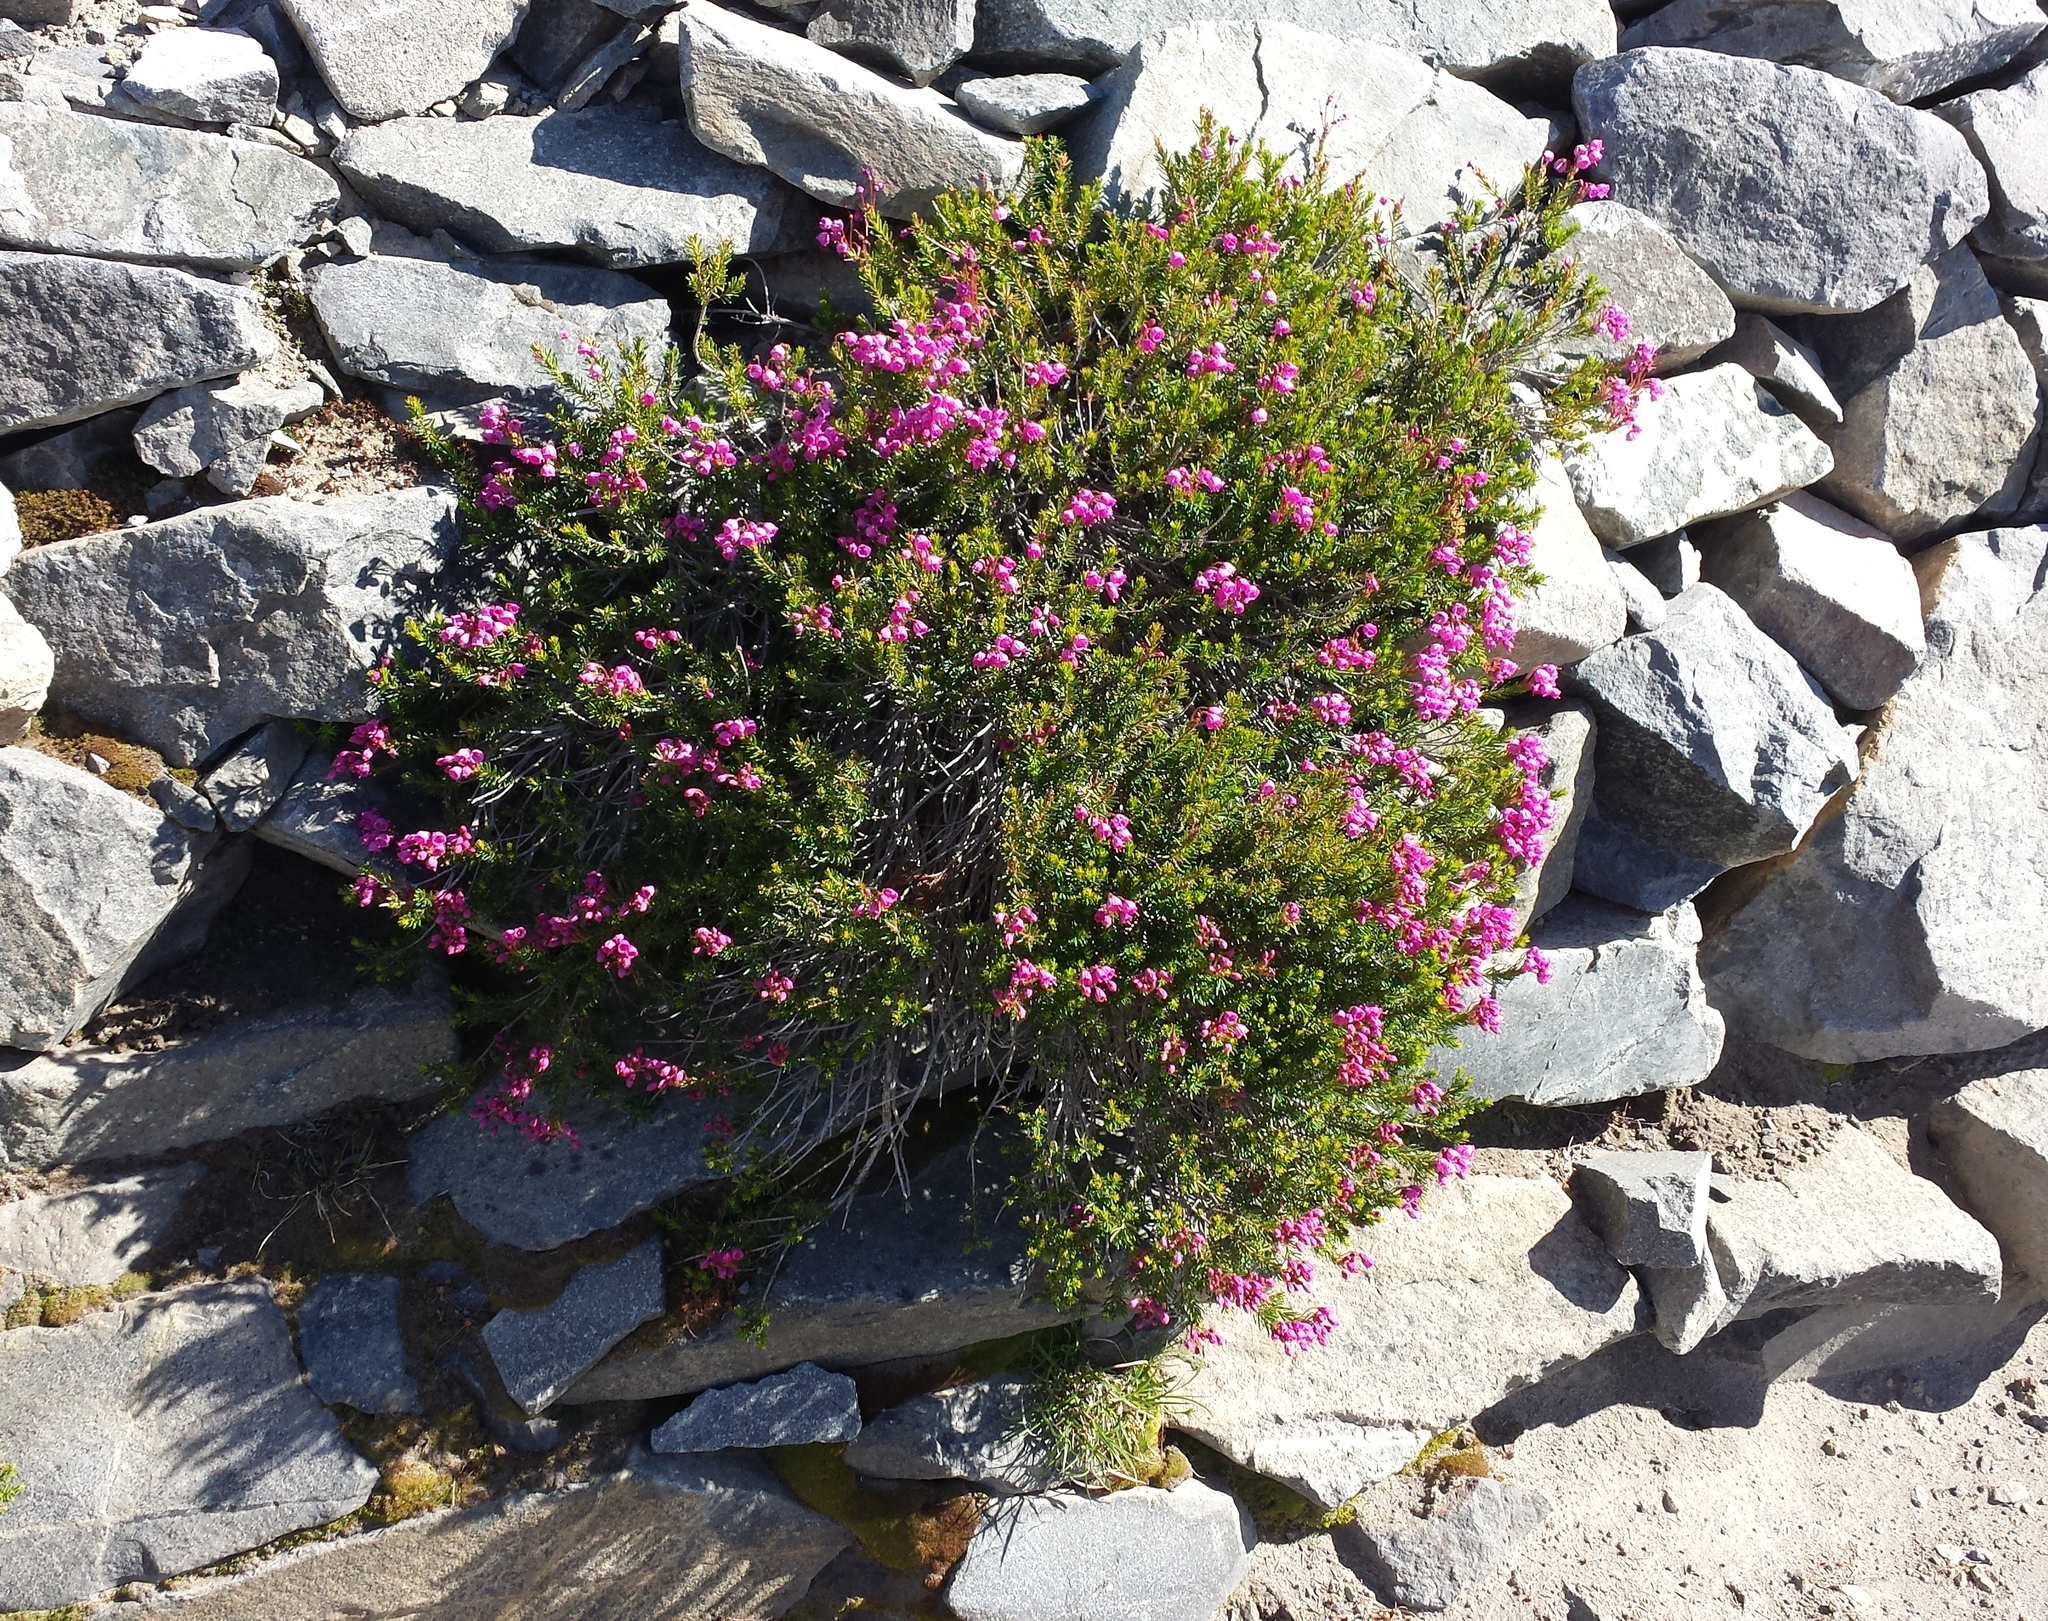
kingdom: Plantae
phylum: Tracheophyta
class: Magnoliopsida
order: Ericales
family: Ericaceae
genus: Phyllodoce
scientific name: Phyllodoce empetriformis
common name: Pink mountain heather
